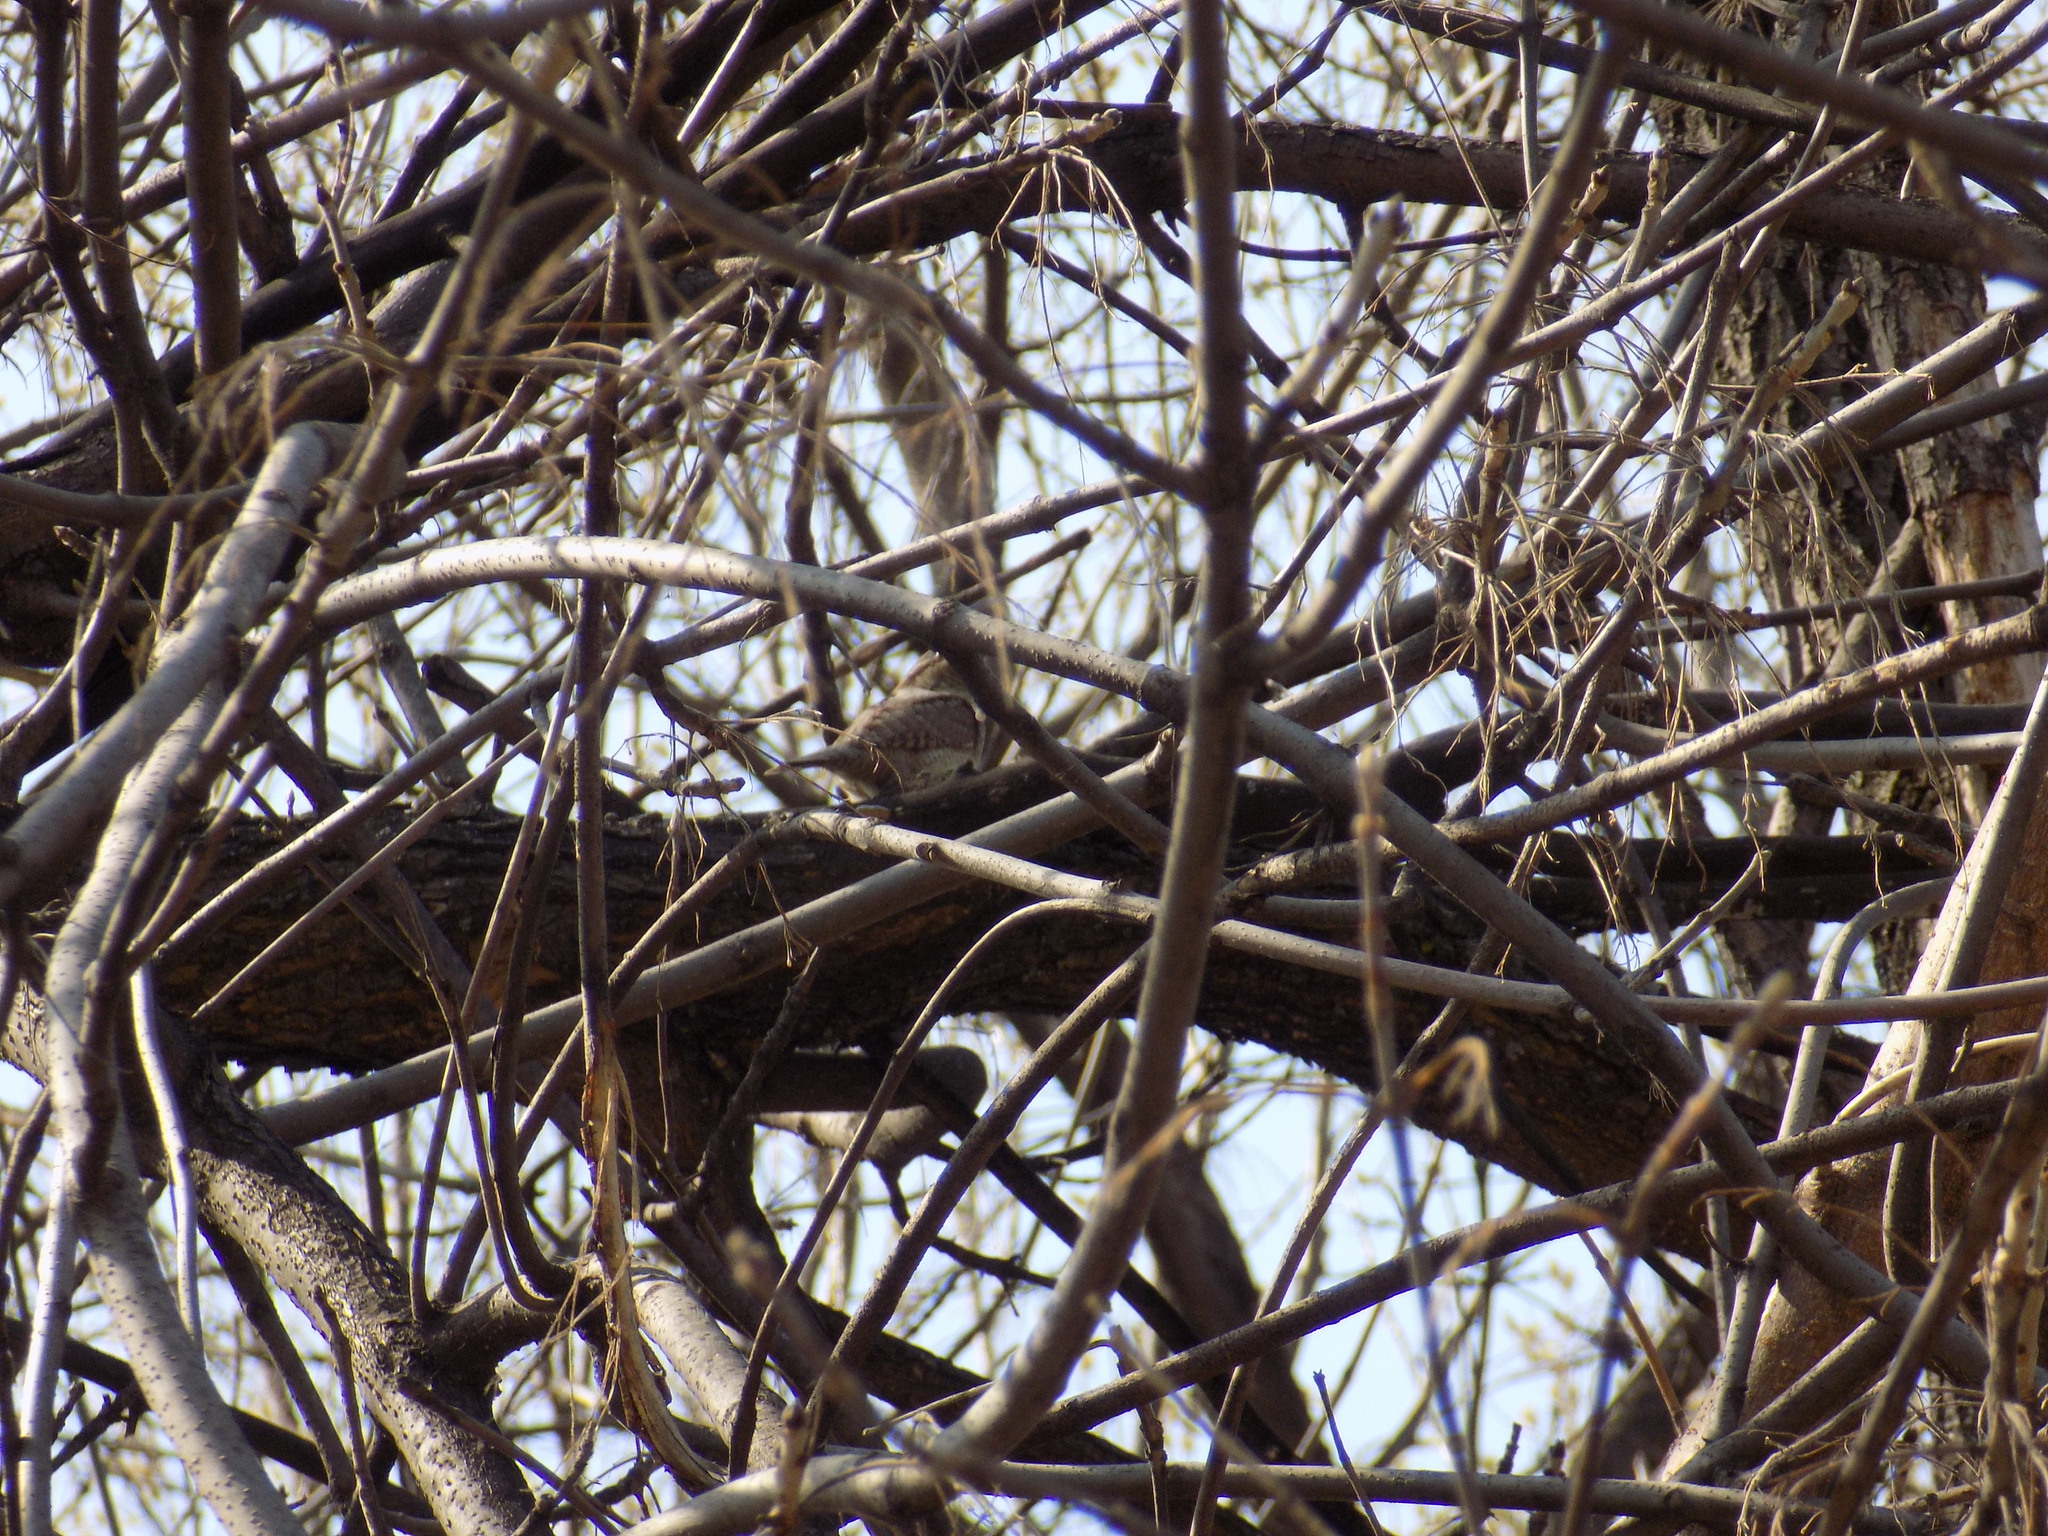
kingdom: Animalia
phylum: Chordata
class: Aves
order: Piciformes
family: Picidae
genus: Jynx
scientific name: Jynx torquilla
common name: Eurasian wryneck
